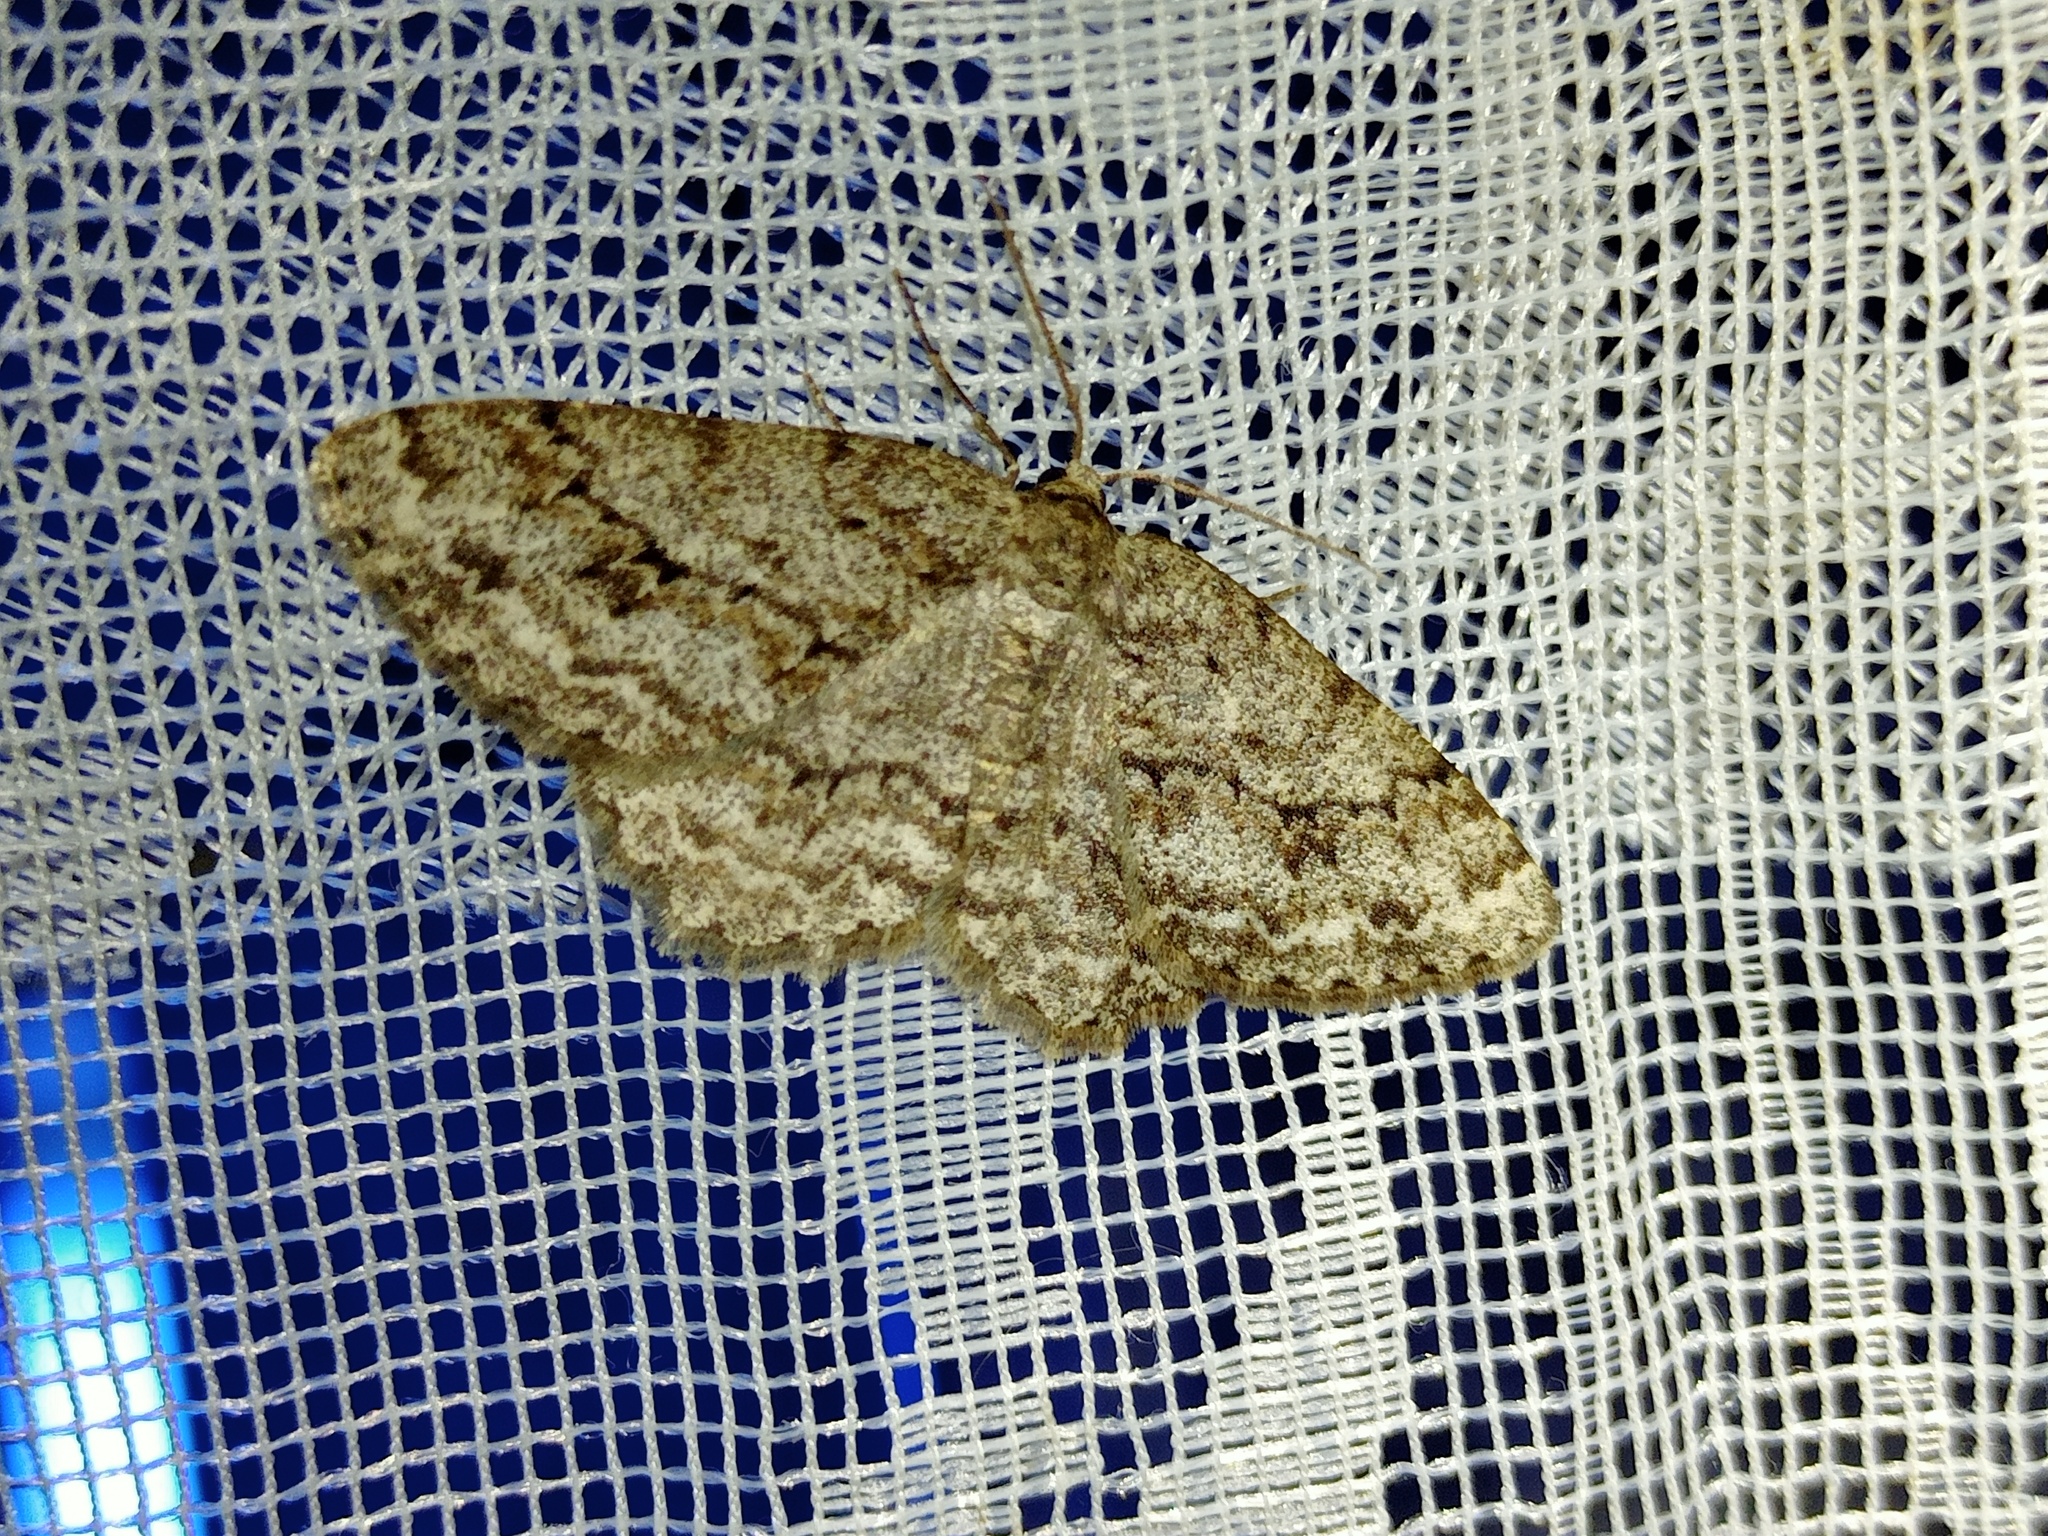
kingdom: Animalia
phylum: Arthropoda
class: Insecta
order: Lepidoptera
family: Geometridae
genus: Ectropis
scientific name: Ectropis crepuscularia
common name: Engrailed
